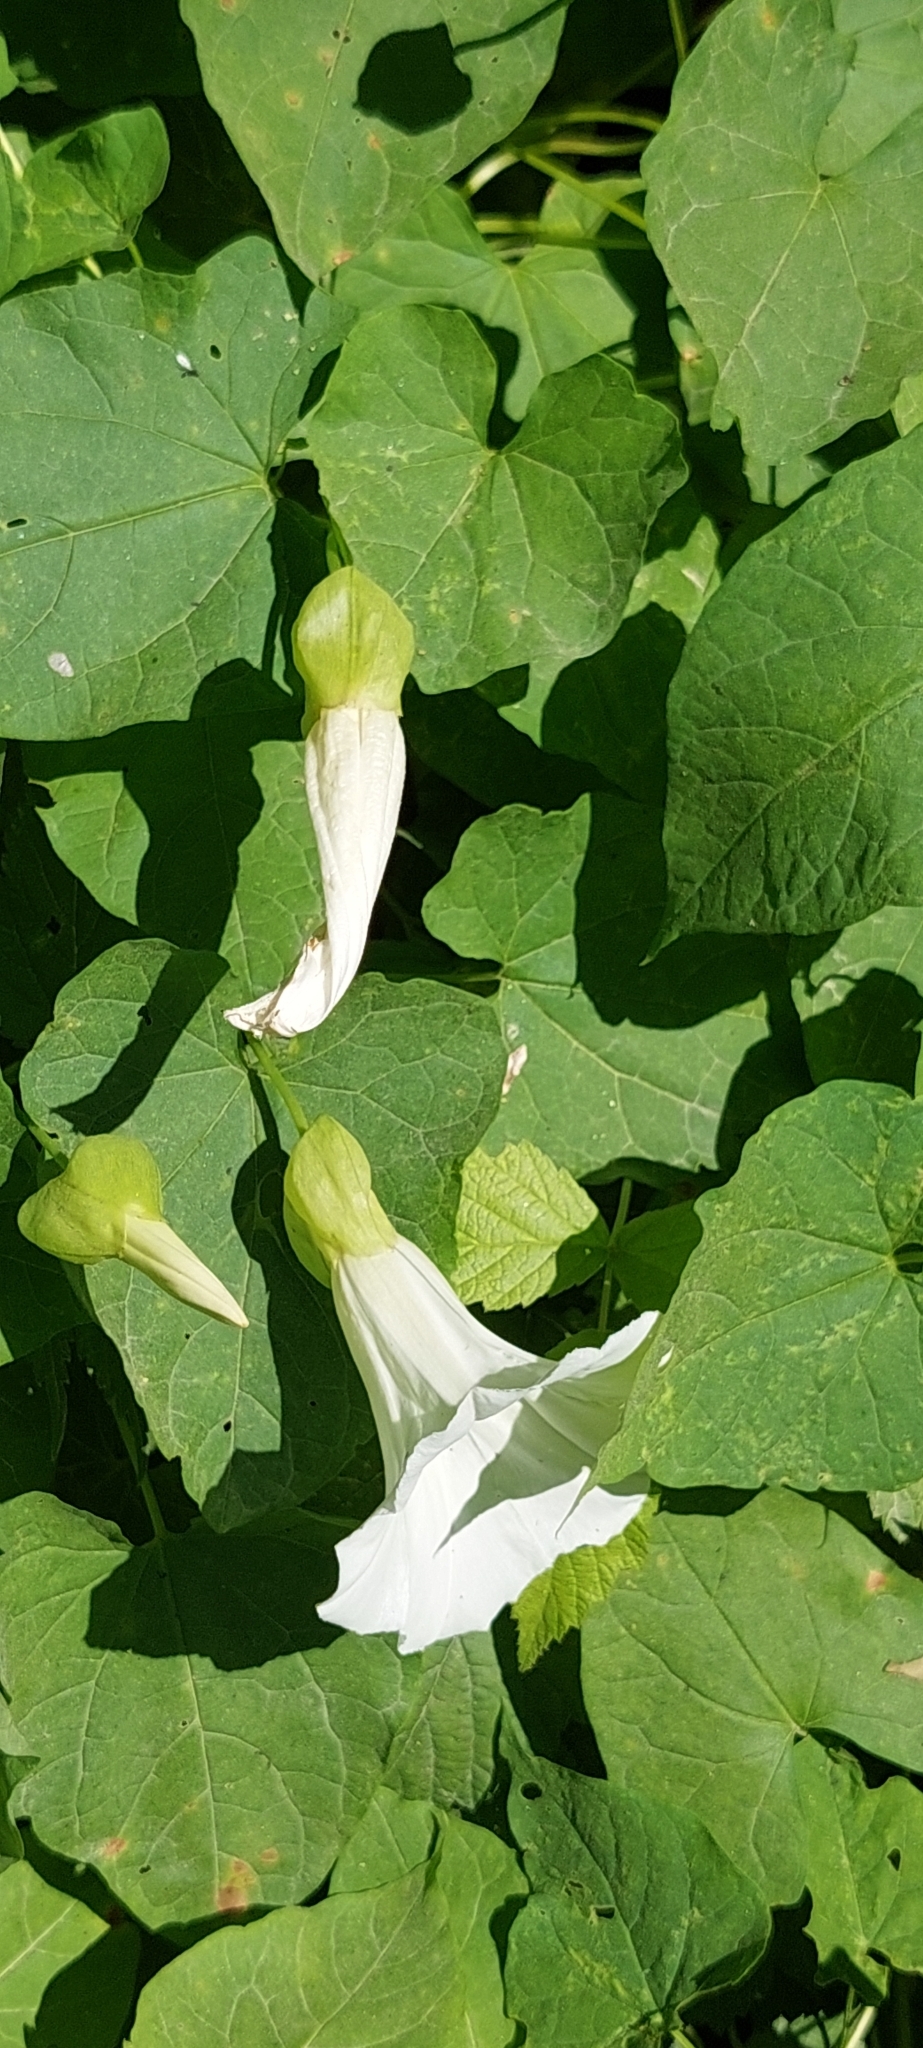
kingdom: Plantae
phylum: Tracheophyta
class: Magnoliopsida
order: Solanales
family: Convolvulaceae
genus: Calystegia
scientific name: Calystegia silvatica
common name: Large bindweed
